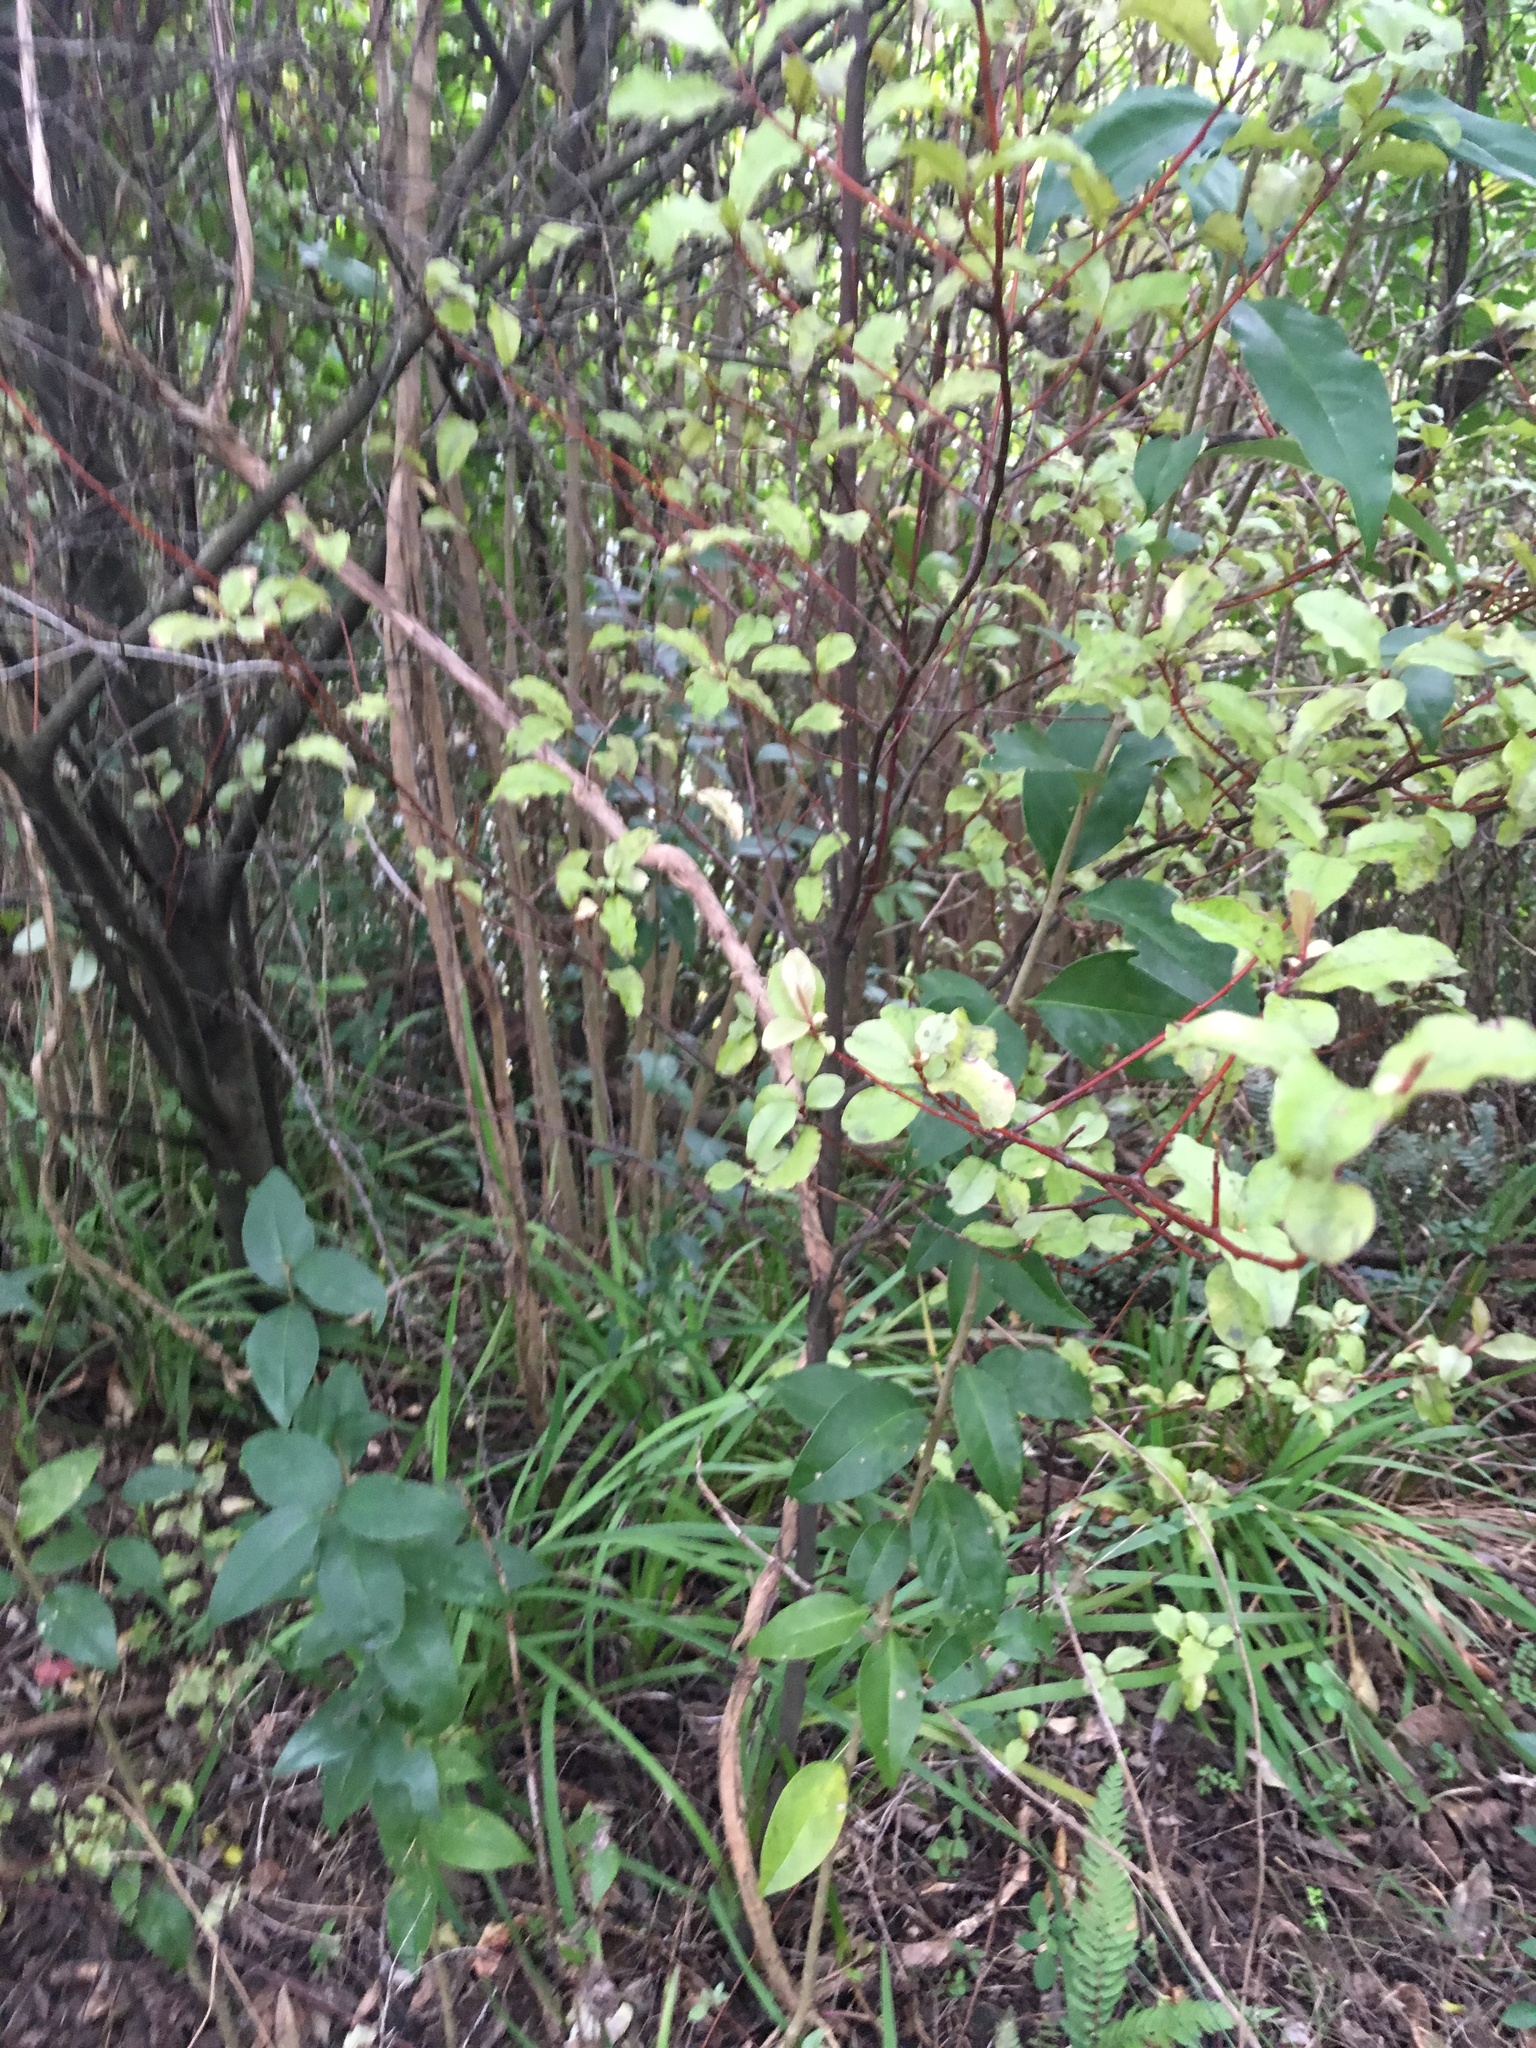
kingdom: Plantae
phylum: Tracheophyta
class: Magnoliopsida
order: Lamiales
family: Oleaceae
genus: Ligustrum
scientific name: Ligustrum lucidum
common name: Glossy privet
